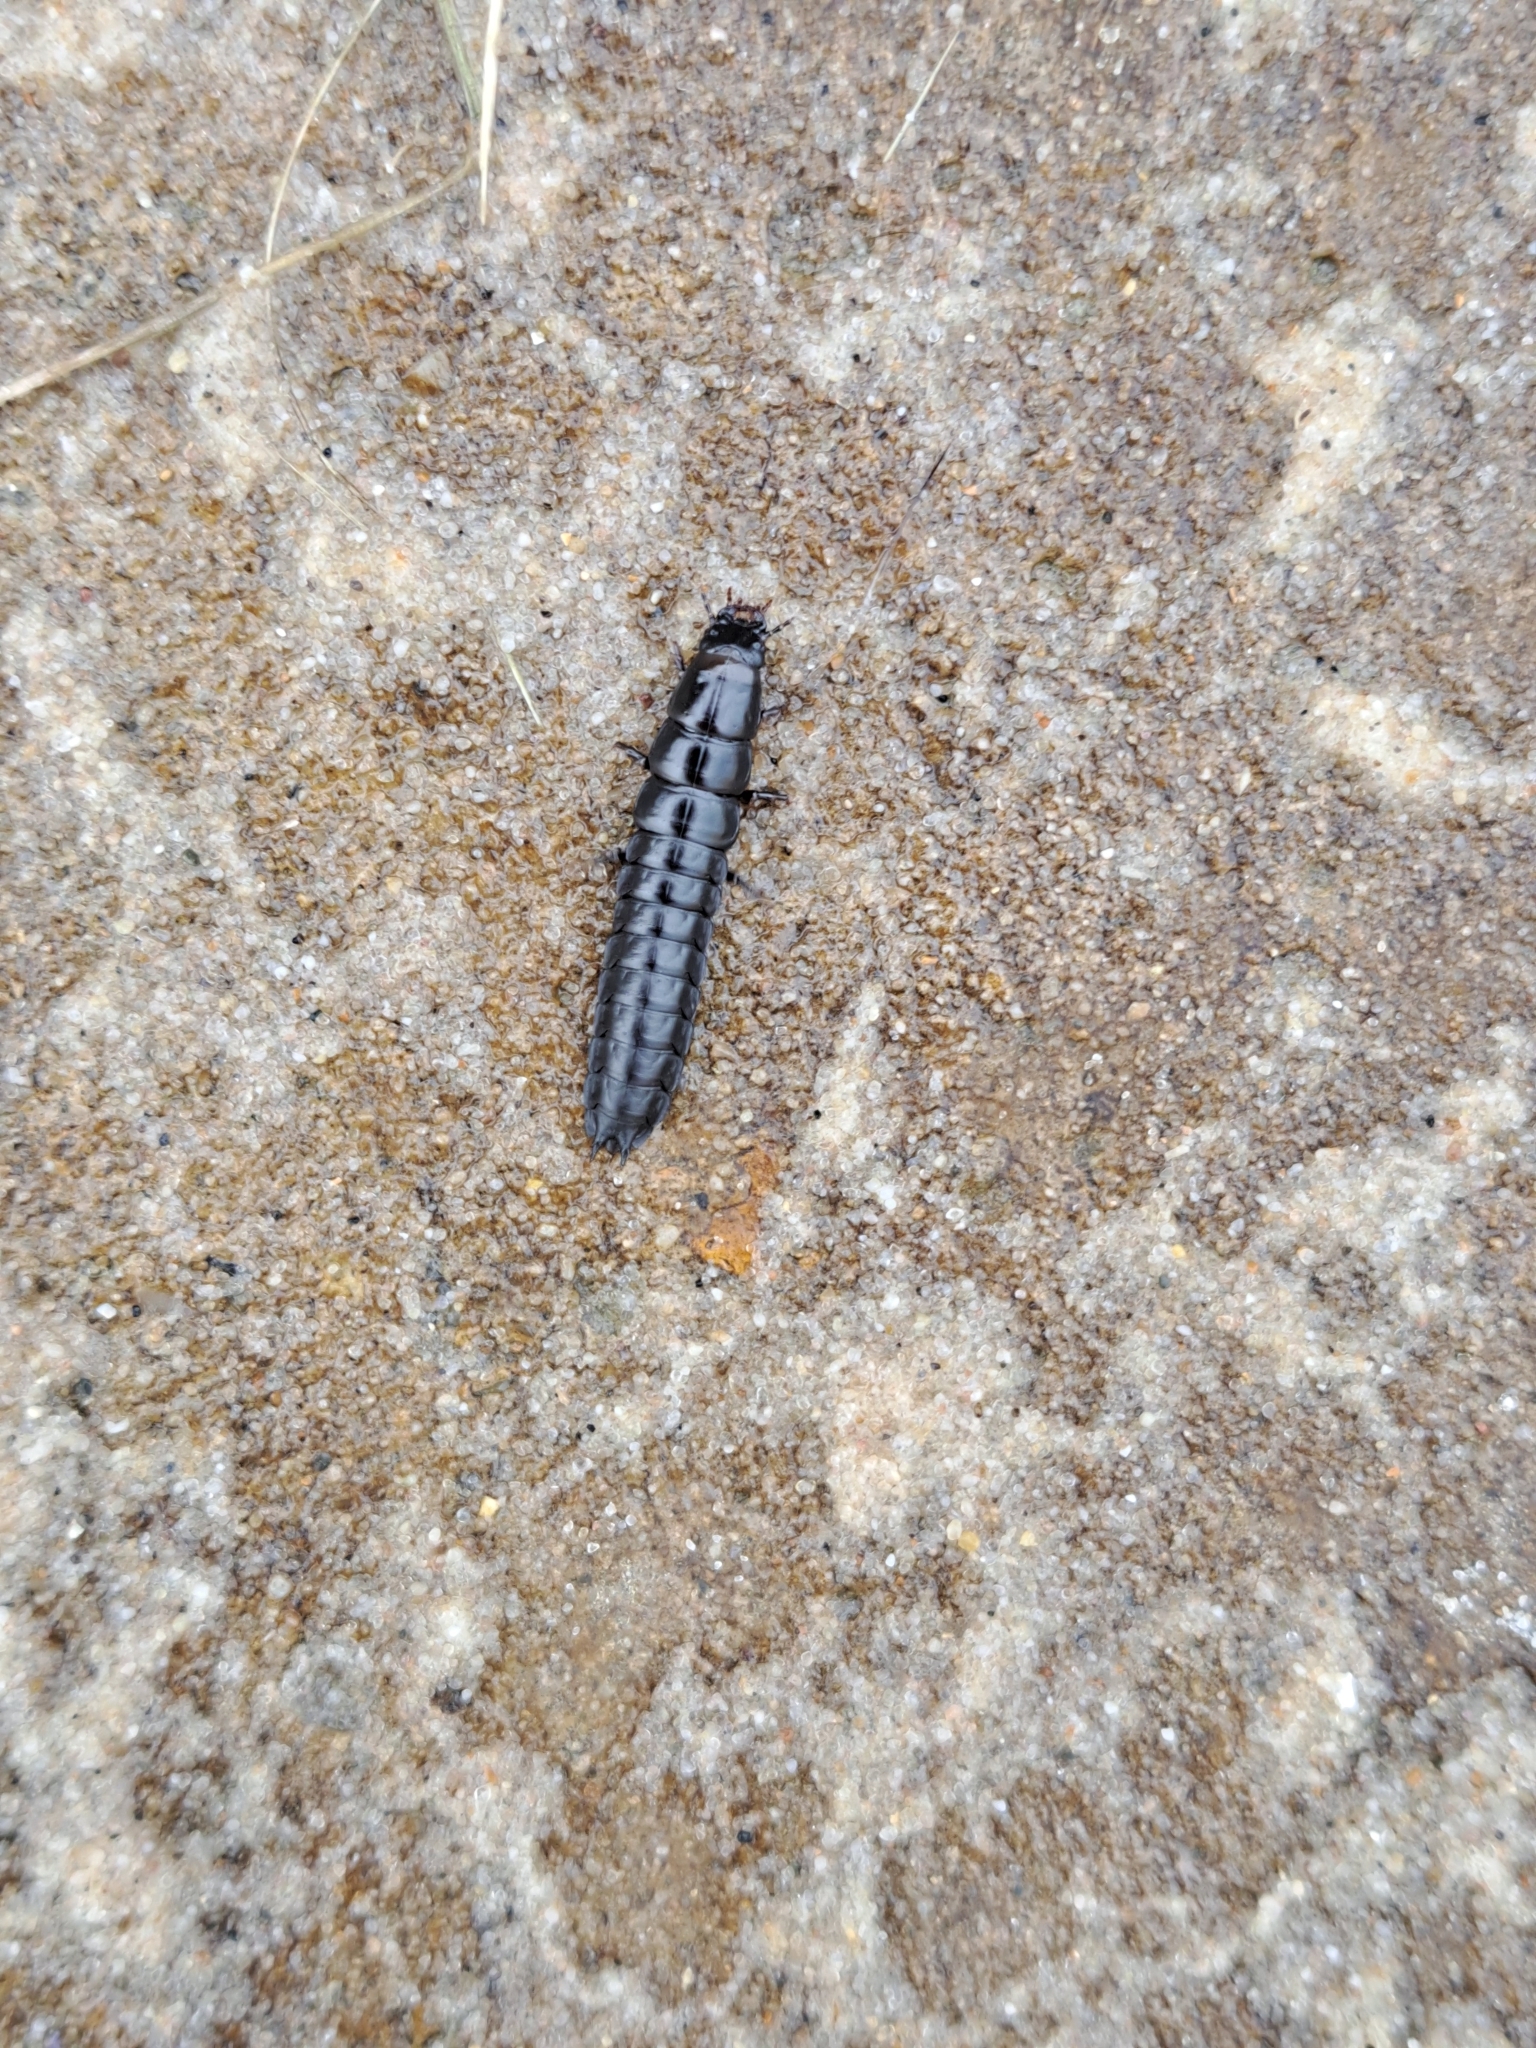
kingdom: Animalia
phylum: Arthropoda
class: Insecta
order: Coleoptera
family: Carabidae
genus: Carabus
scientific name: Carabus
